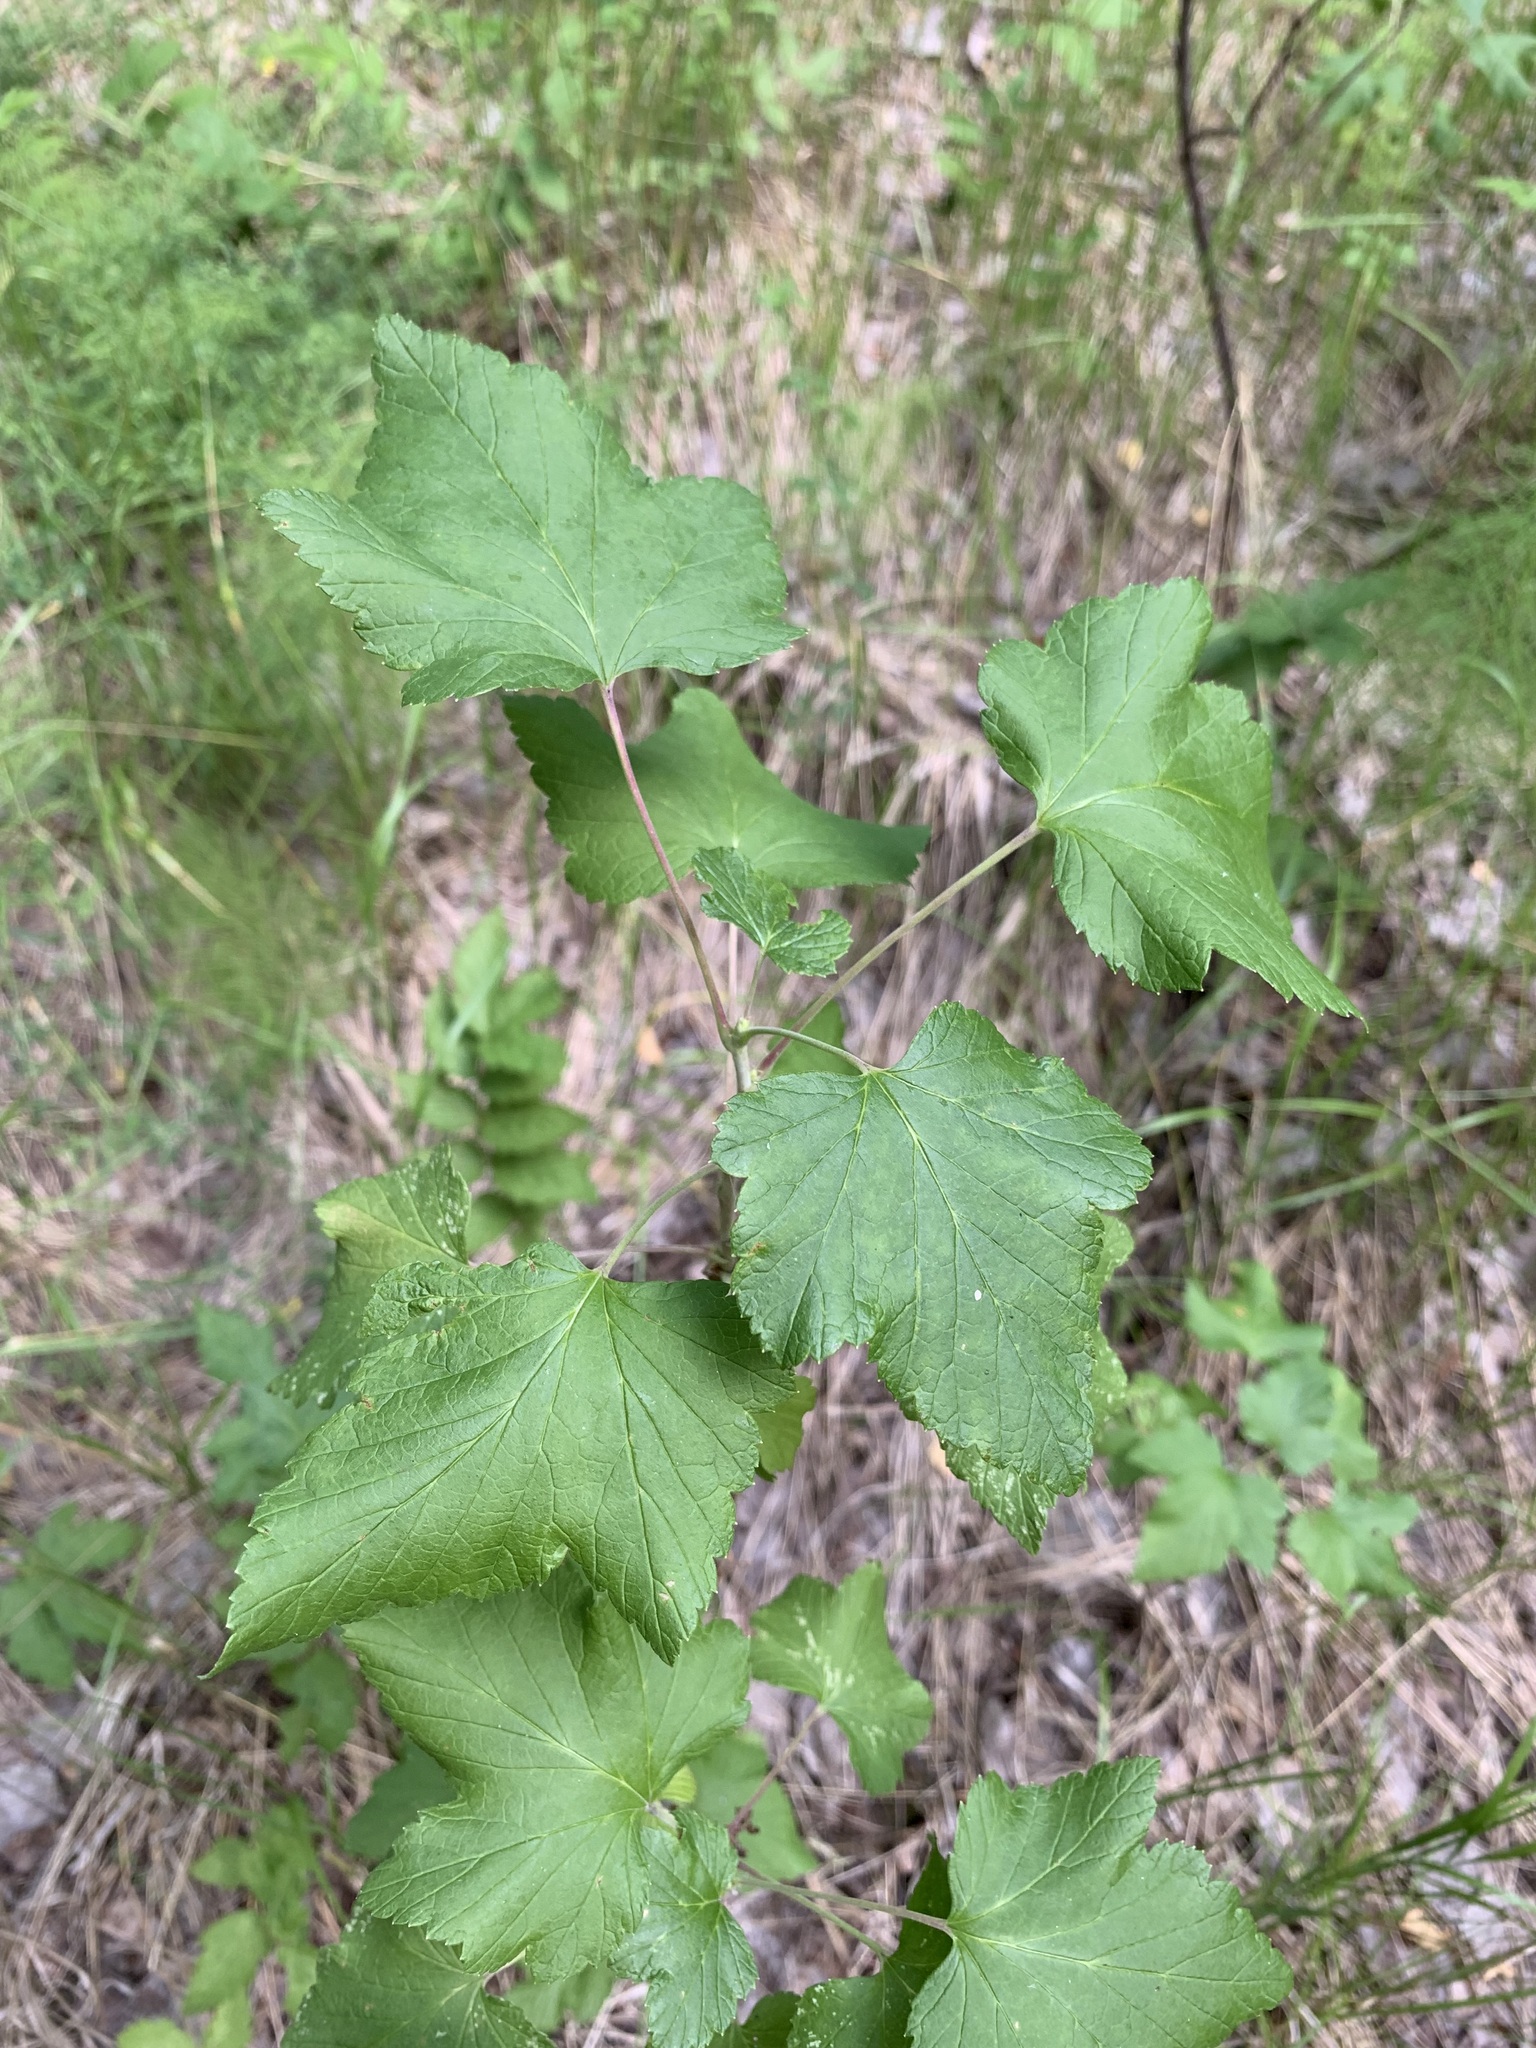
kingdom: Plantae
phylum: Tracheophyta
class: Magnoliopsida
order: Saxifragales
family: Grossulariaceae
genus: Ribes
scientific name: Ribes nigrum
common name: Black currant
